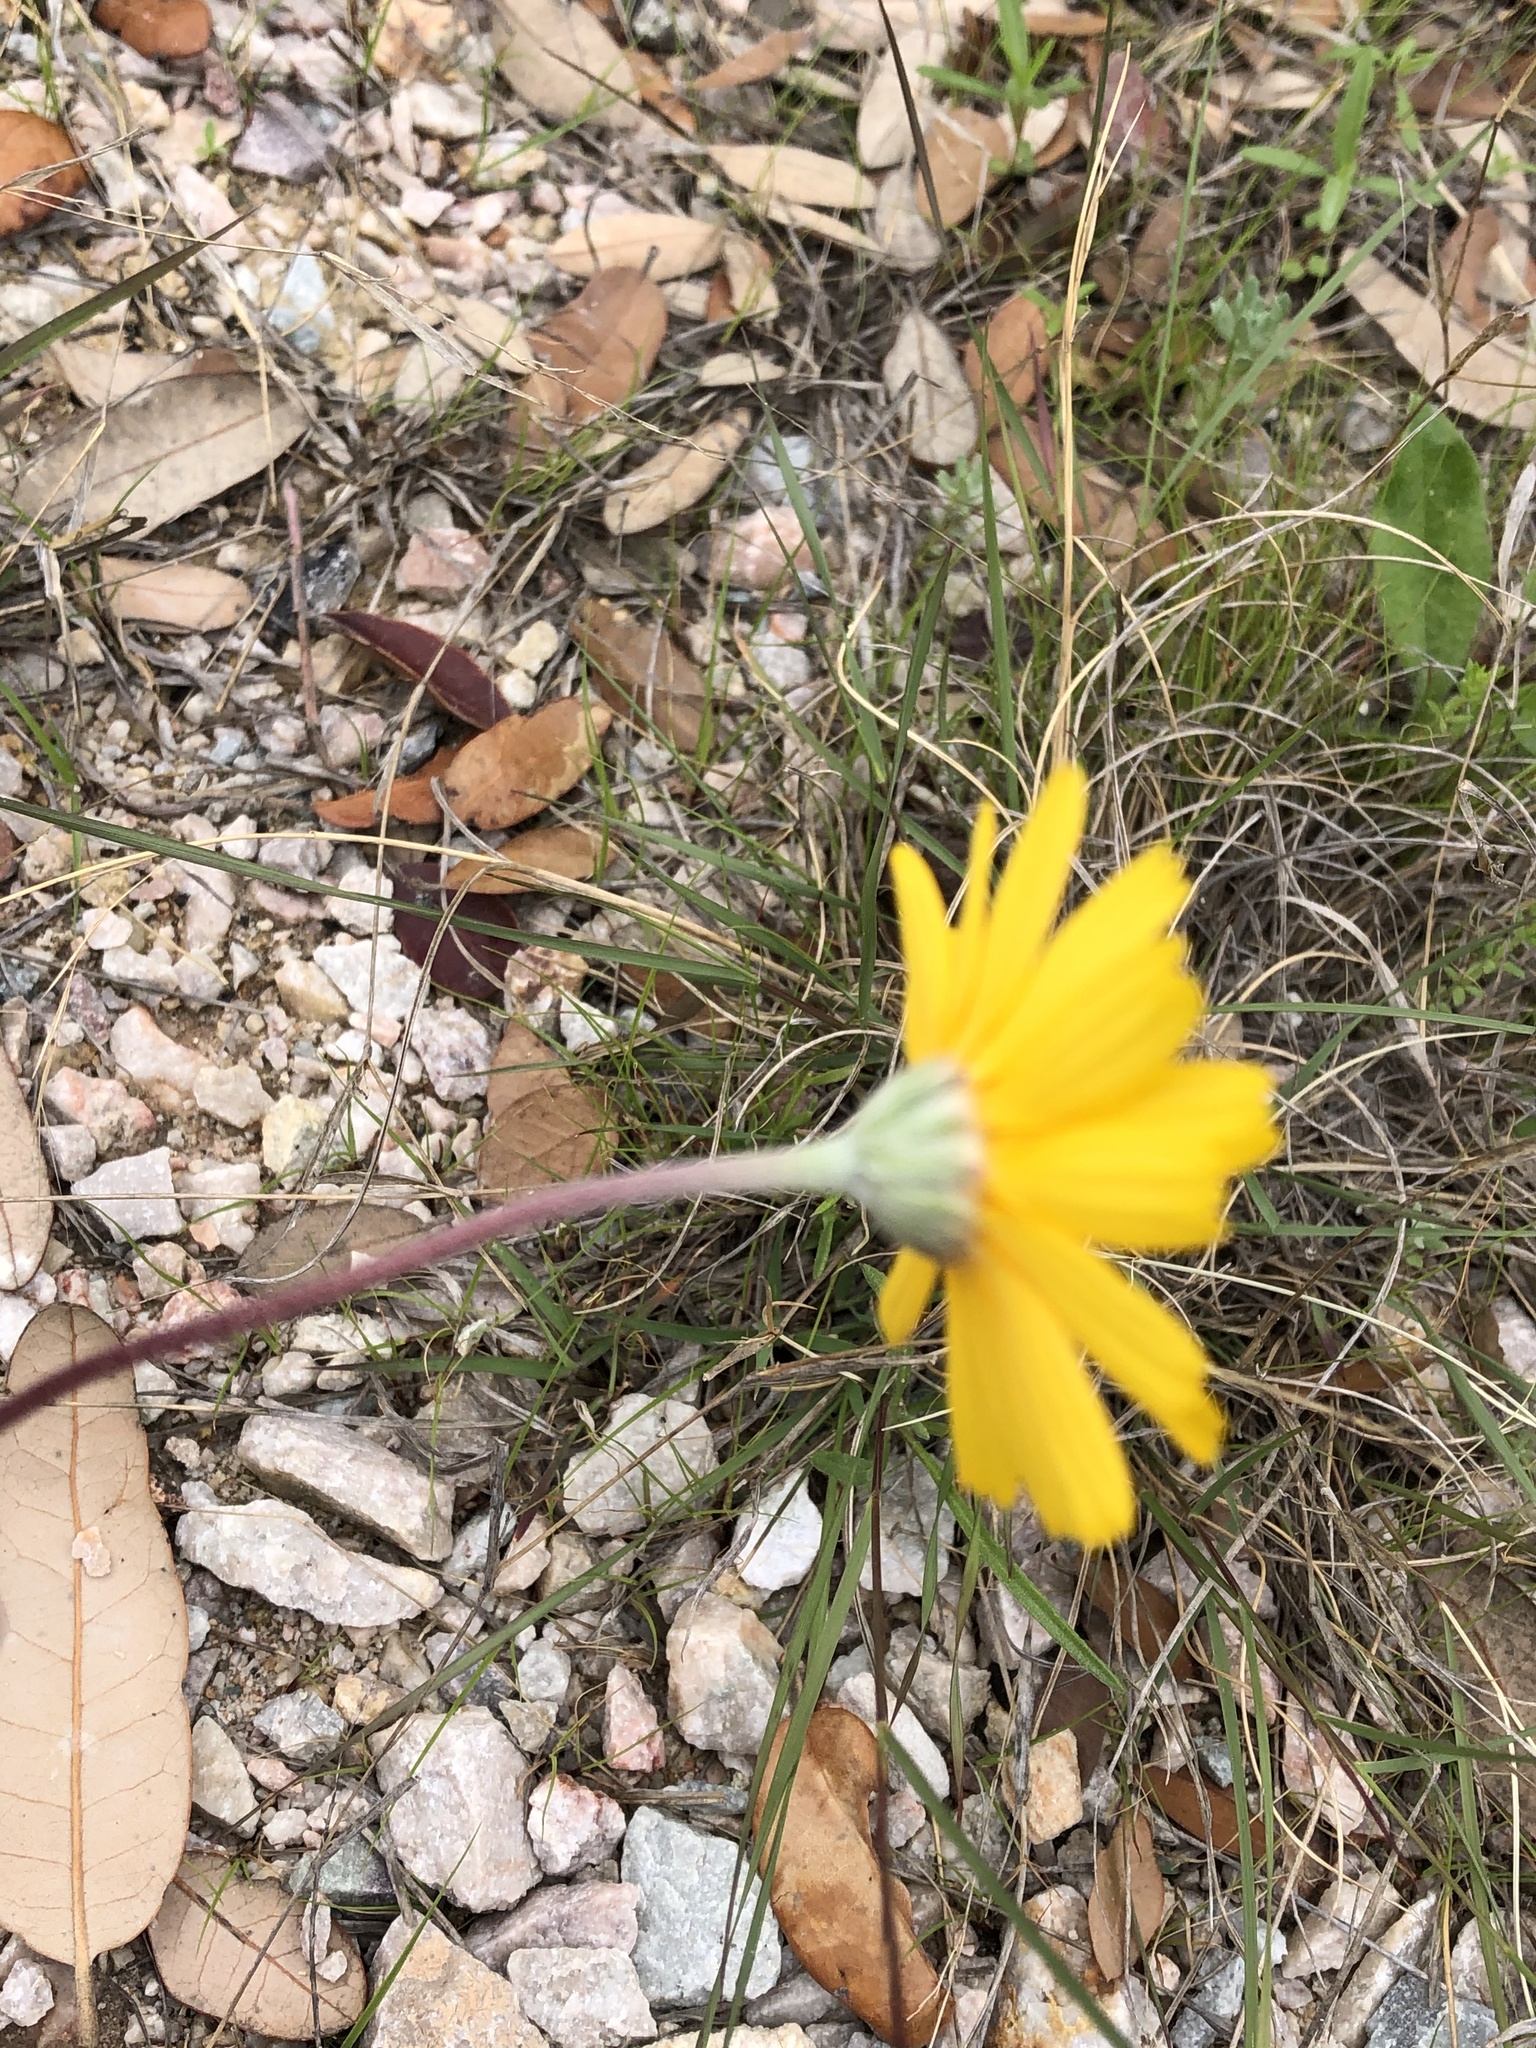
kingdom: Plantae
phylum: Tracheophyta
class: Magnoliopsida
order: Asterales
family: Asteraceae
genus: Tetraneuris
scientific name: Tetraneuris scaposa
